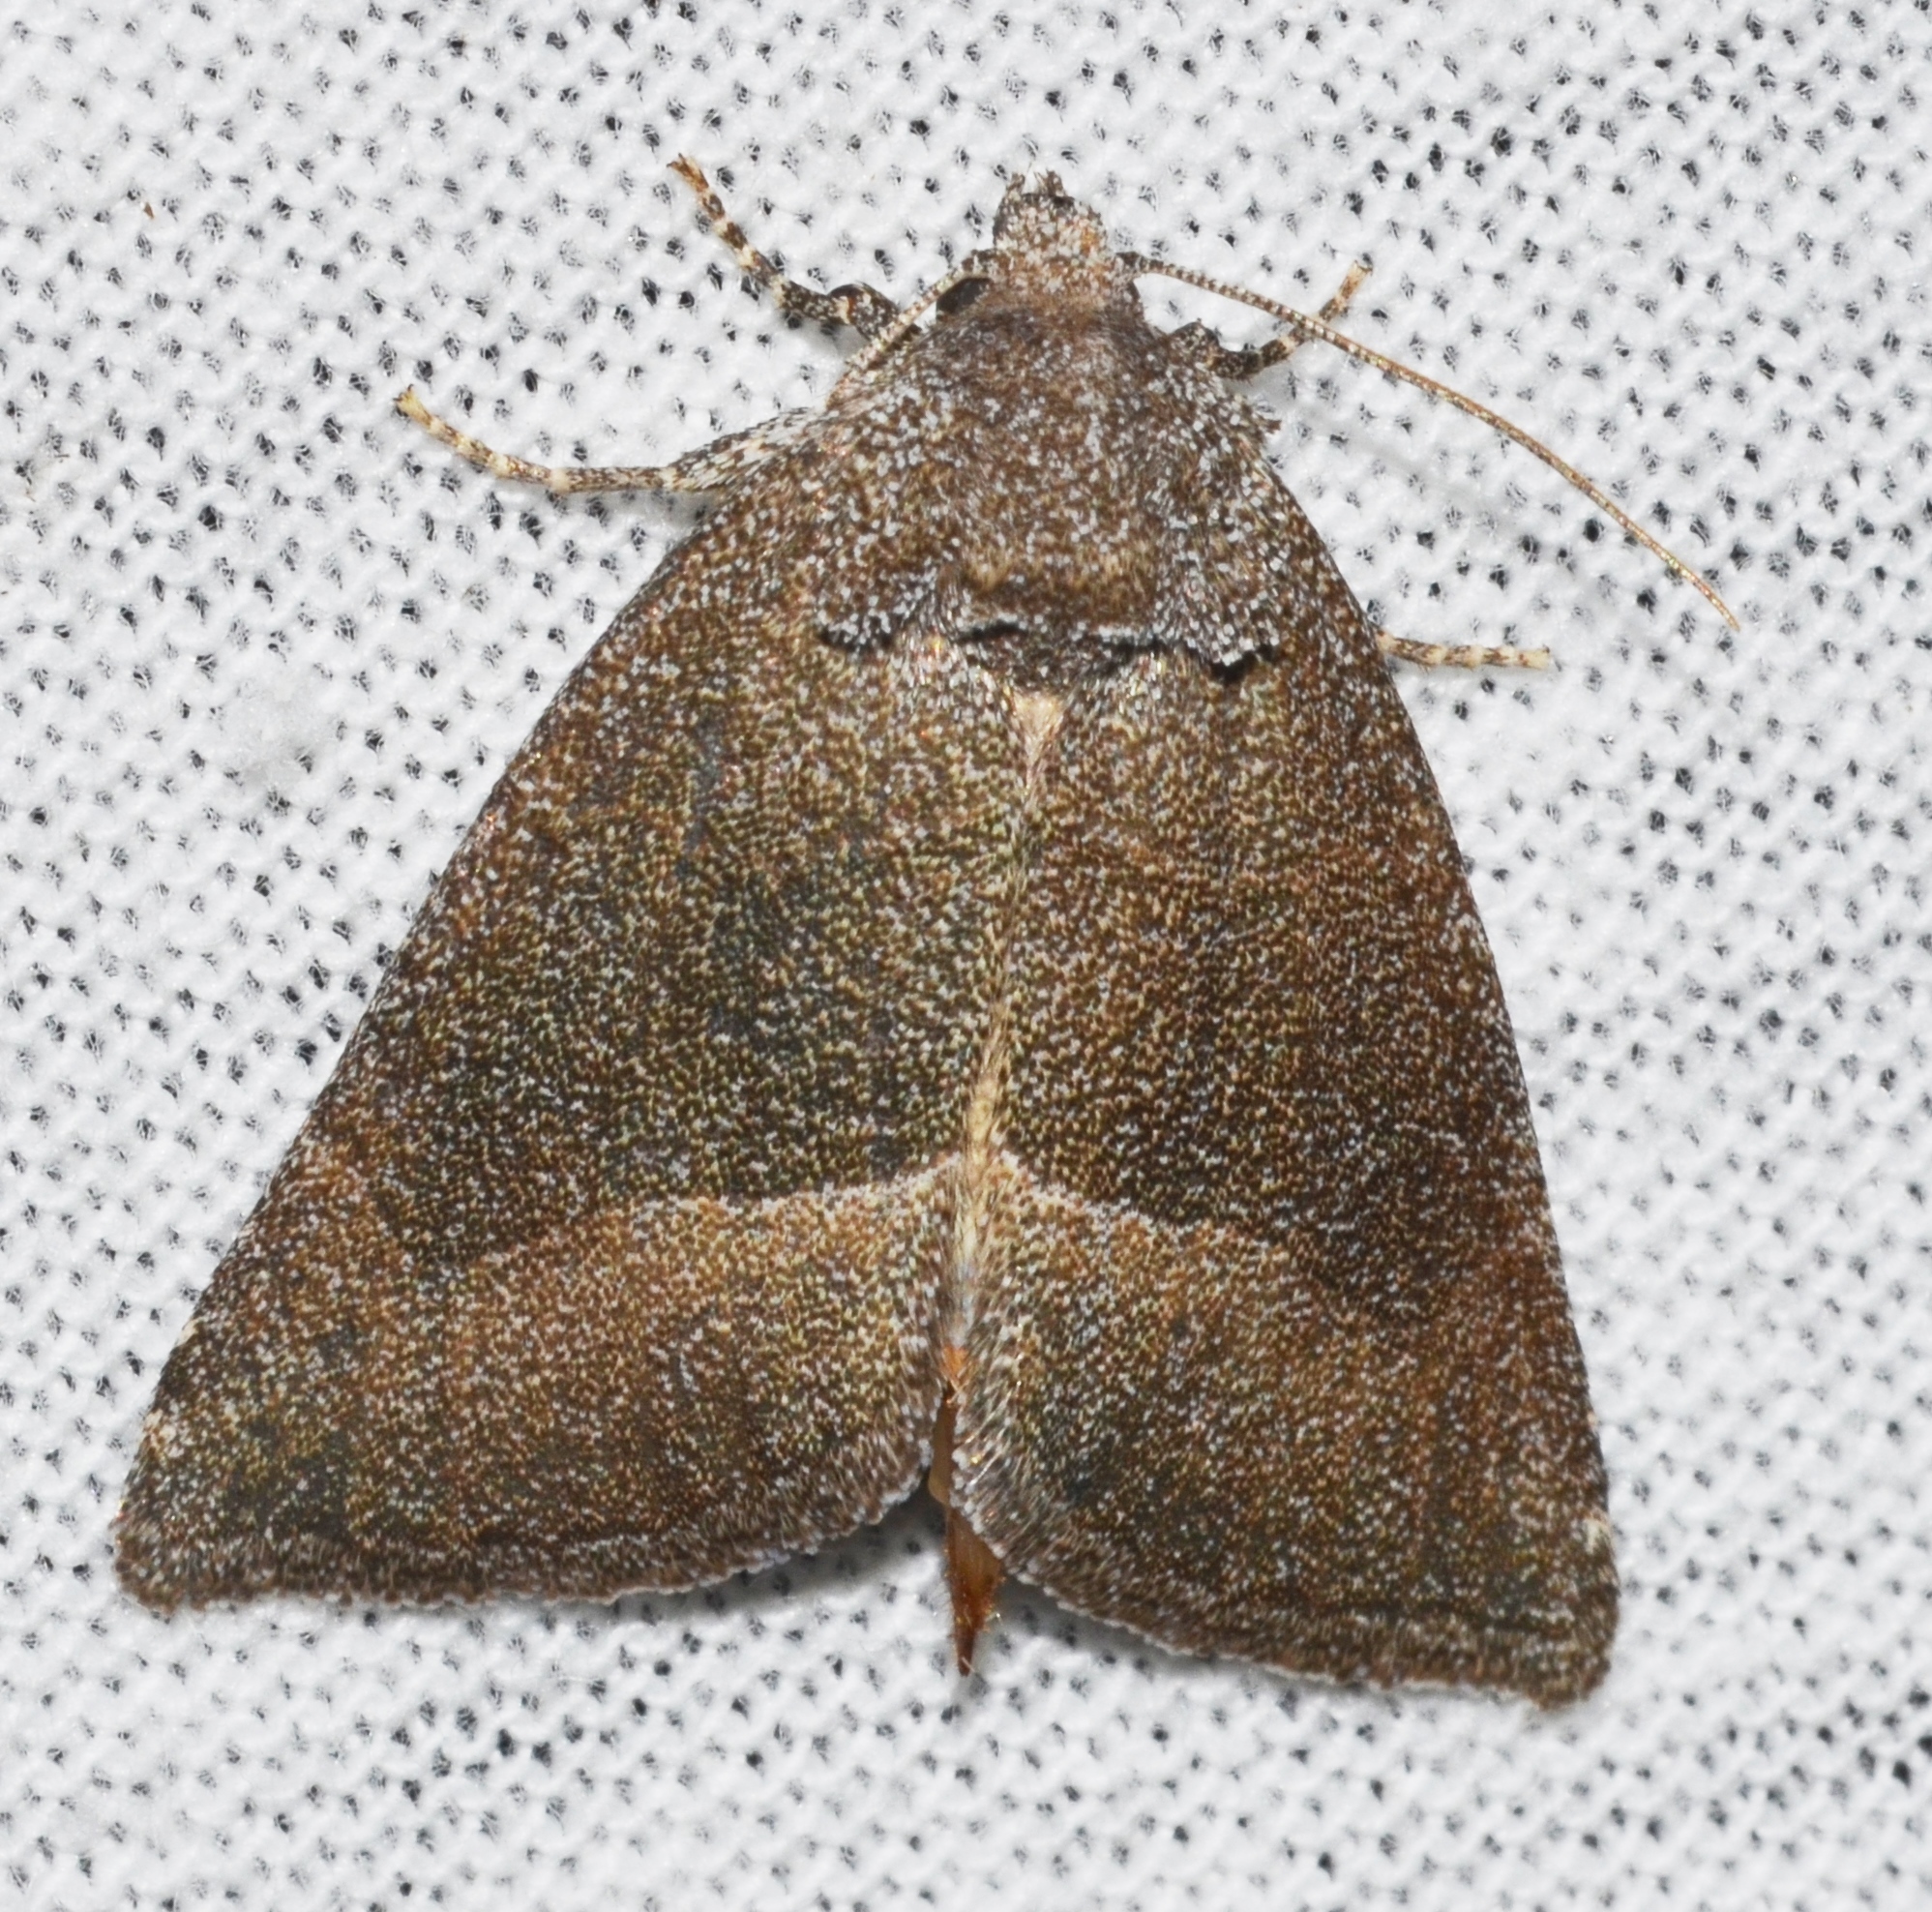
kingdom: Animalia
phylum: Arthropoda
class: Insecta
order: Lepidoptera
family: Noctuidae
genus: Plagiomimicus
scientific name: Plagiomimicus spumosum
